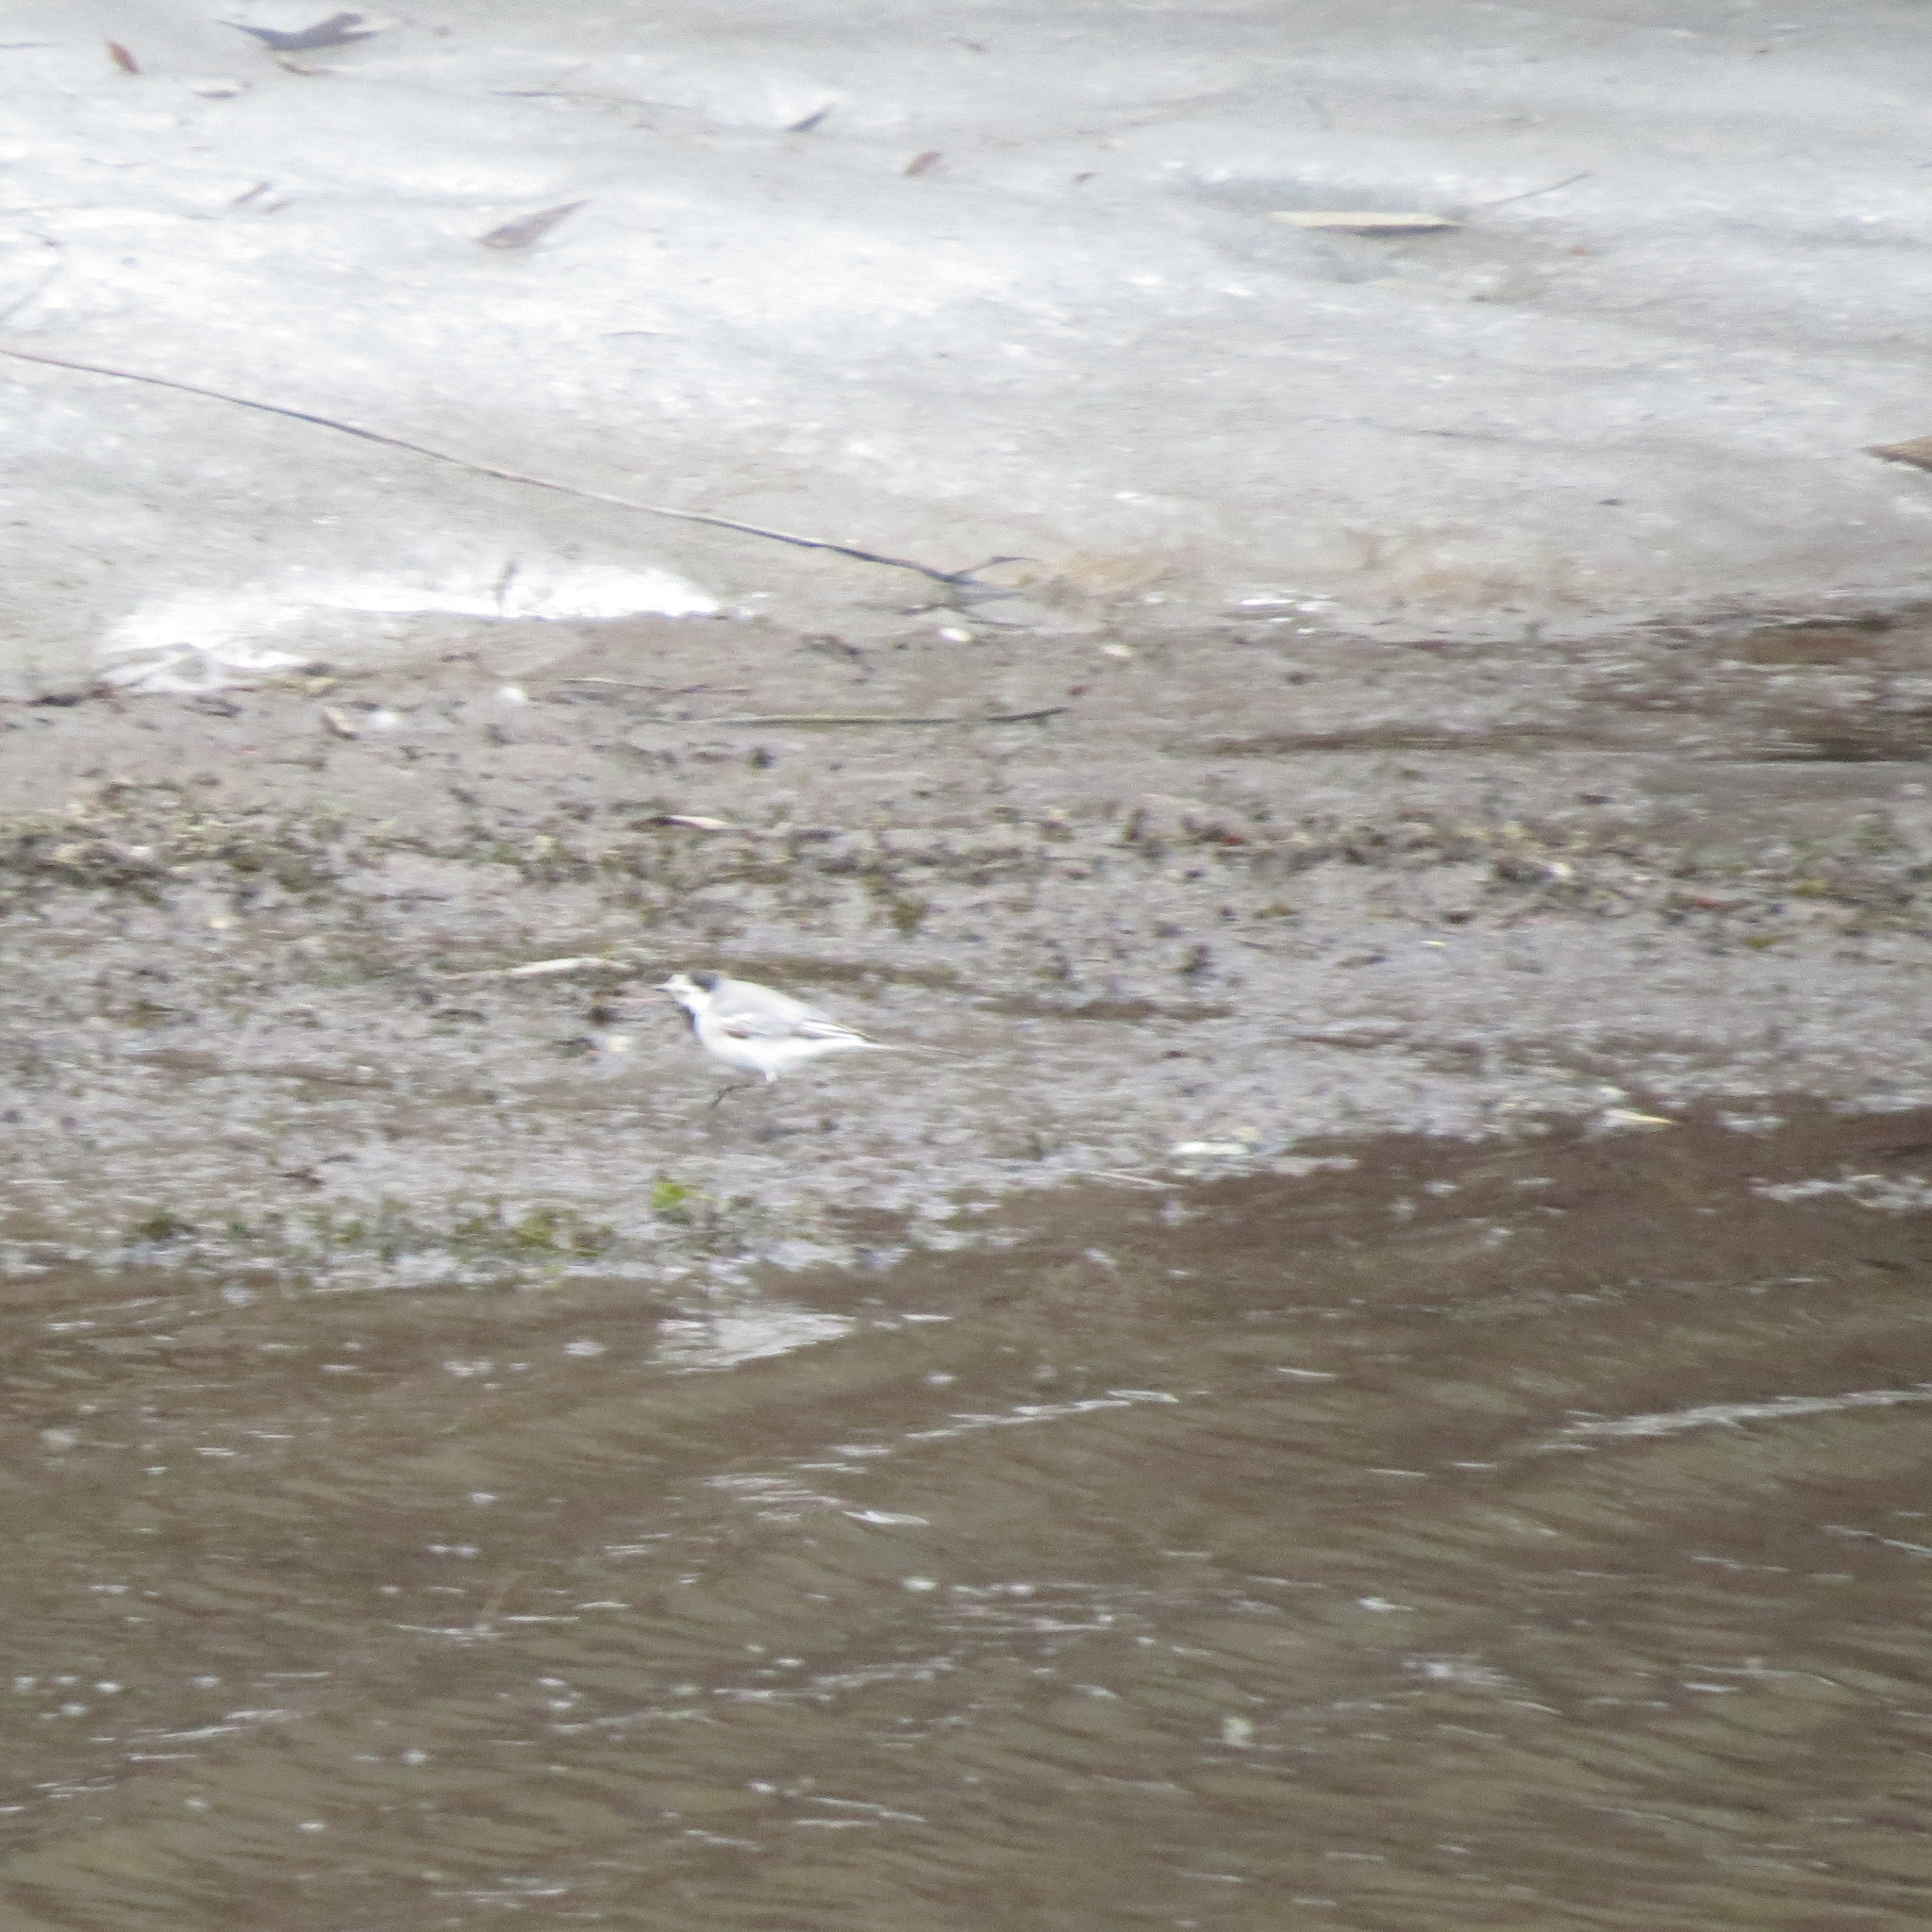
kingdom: Animalia
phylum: Chordata
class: Aves
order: Passeriformes
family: Motacillidae
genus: Motacilla
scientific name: Motacilla alba
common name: White wagtail
